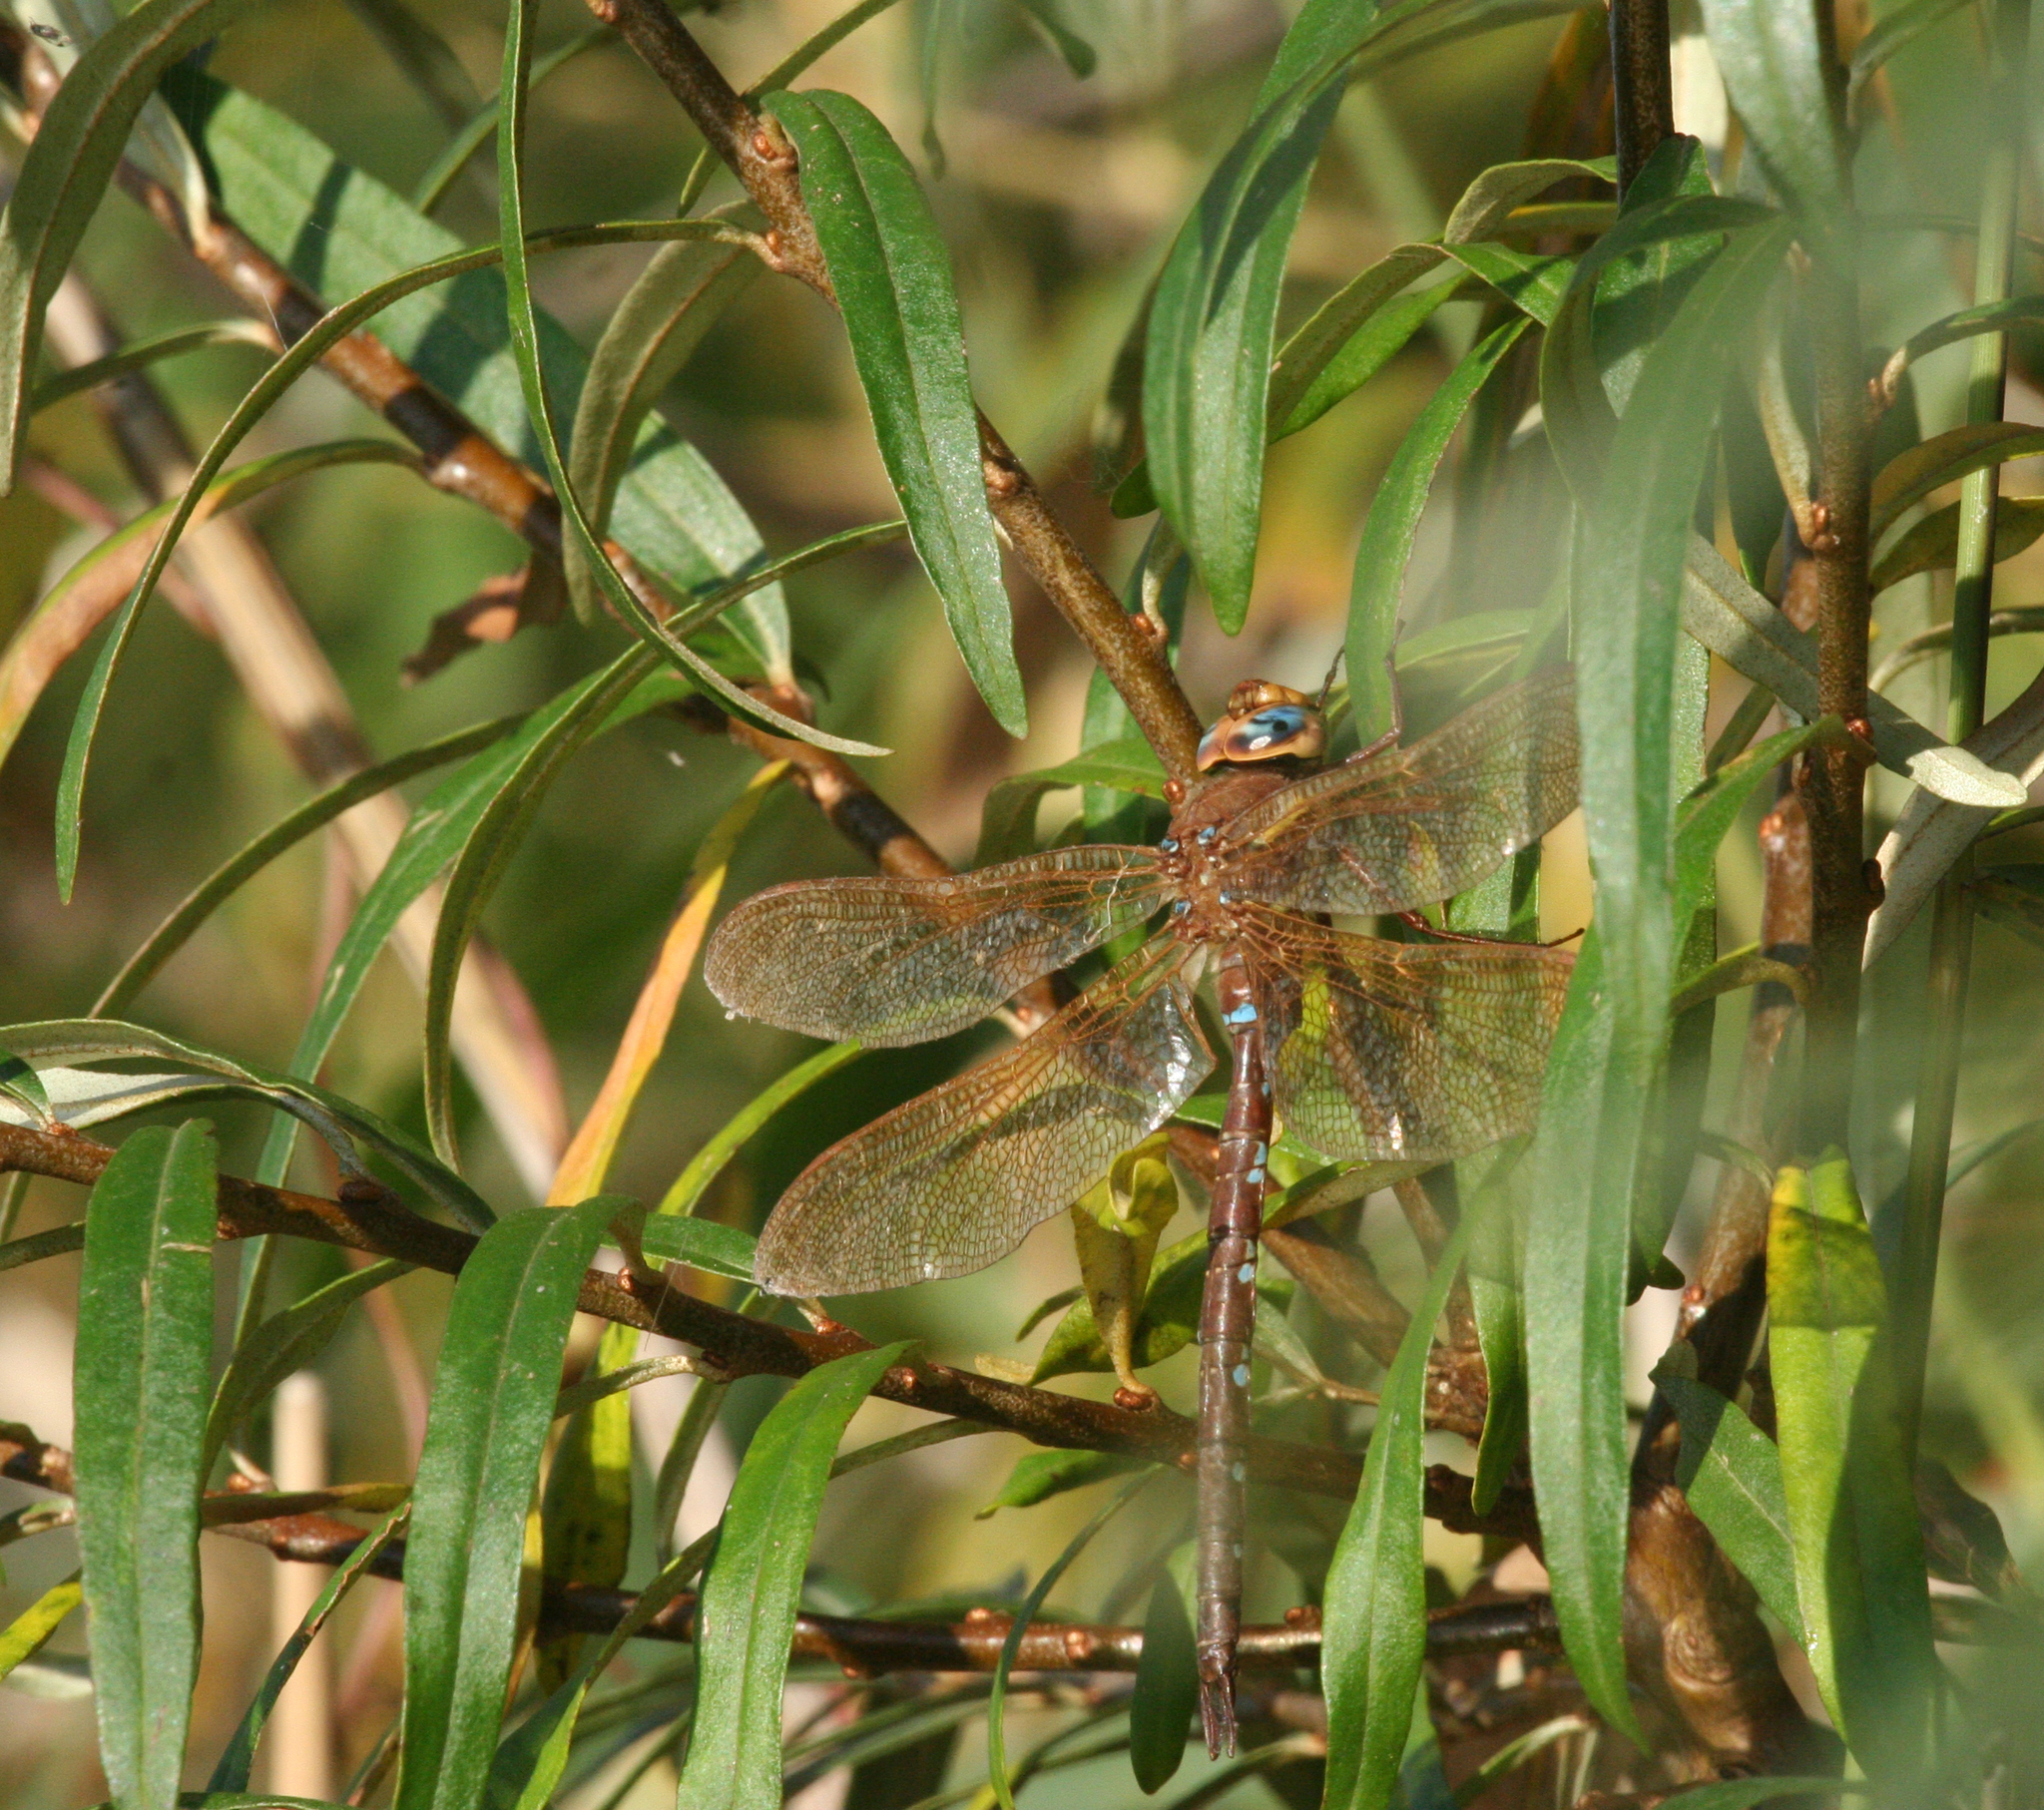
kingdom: Animalia
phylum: Arthropoda
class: Insecta
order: Odonata
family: Aeshnidae
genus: Aeshna
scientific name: Aeshna grandis
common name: Brown hawker
